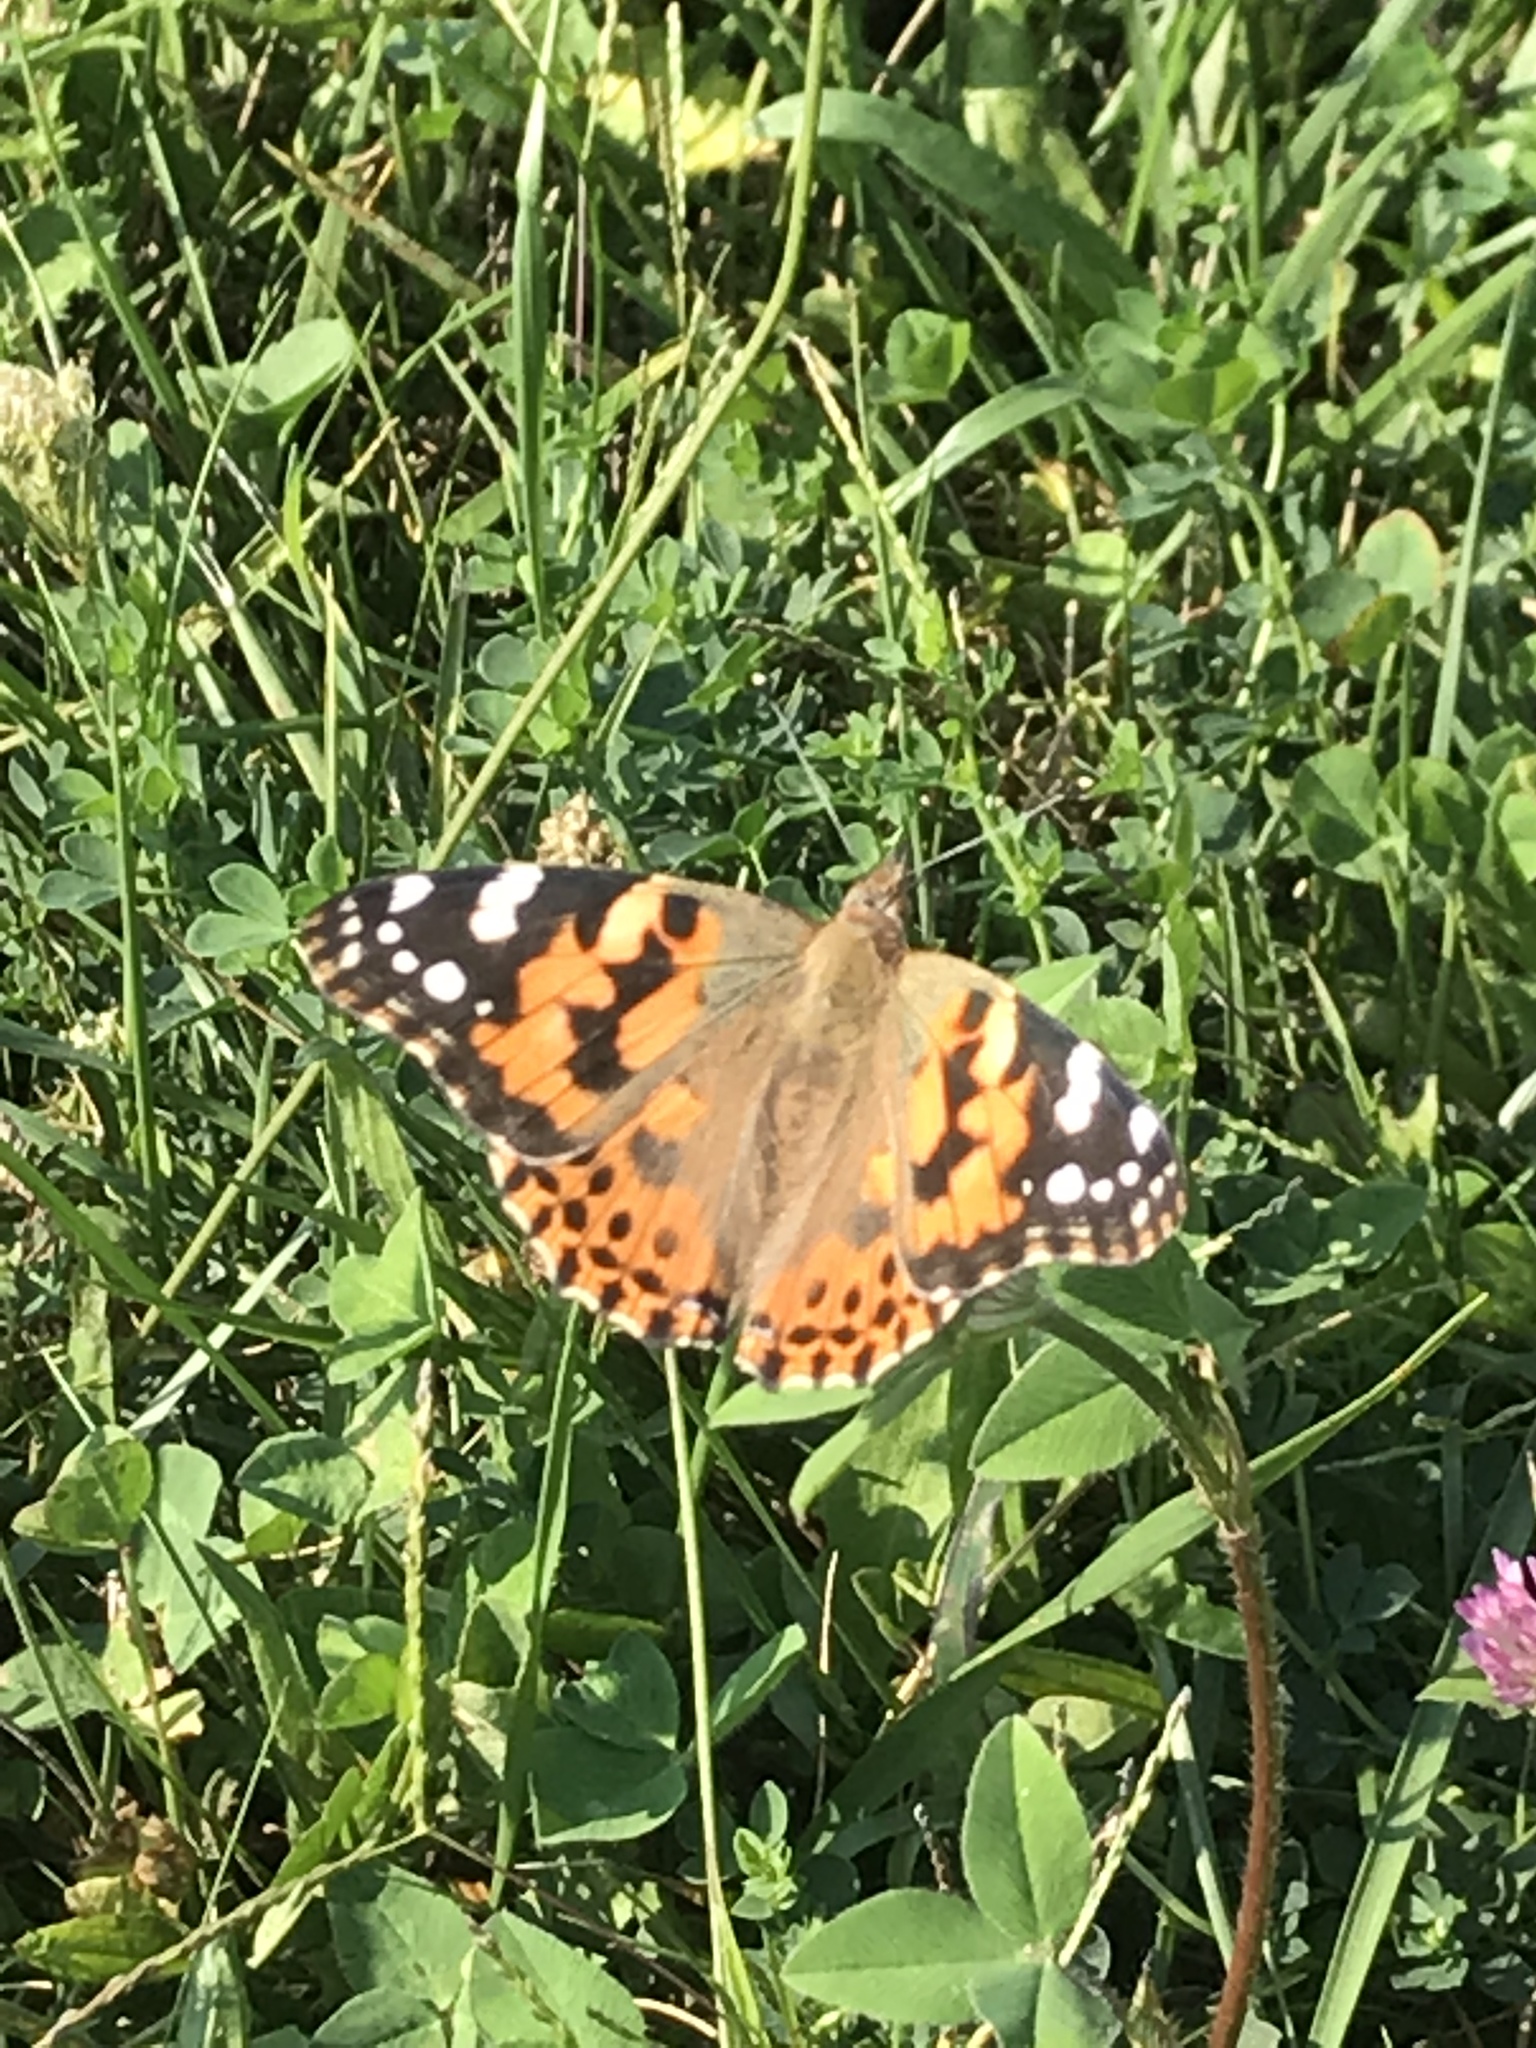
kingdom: Animalia
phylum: Arthropoda
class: Insecta
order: Lepidoptera
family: Nymphalidae
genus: Vanessa
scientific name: Vanessa cardui
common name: Painted lady
